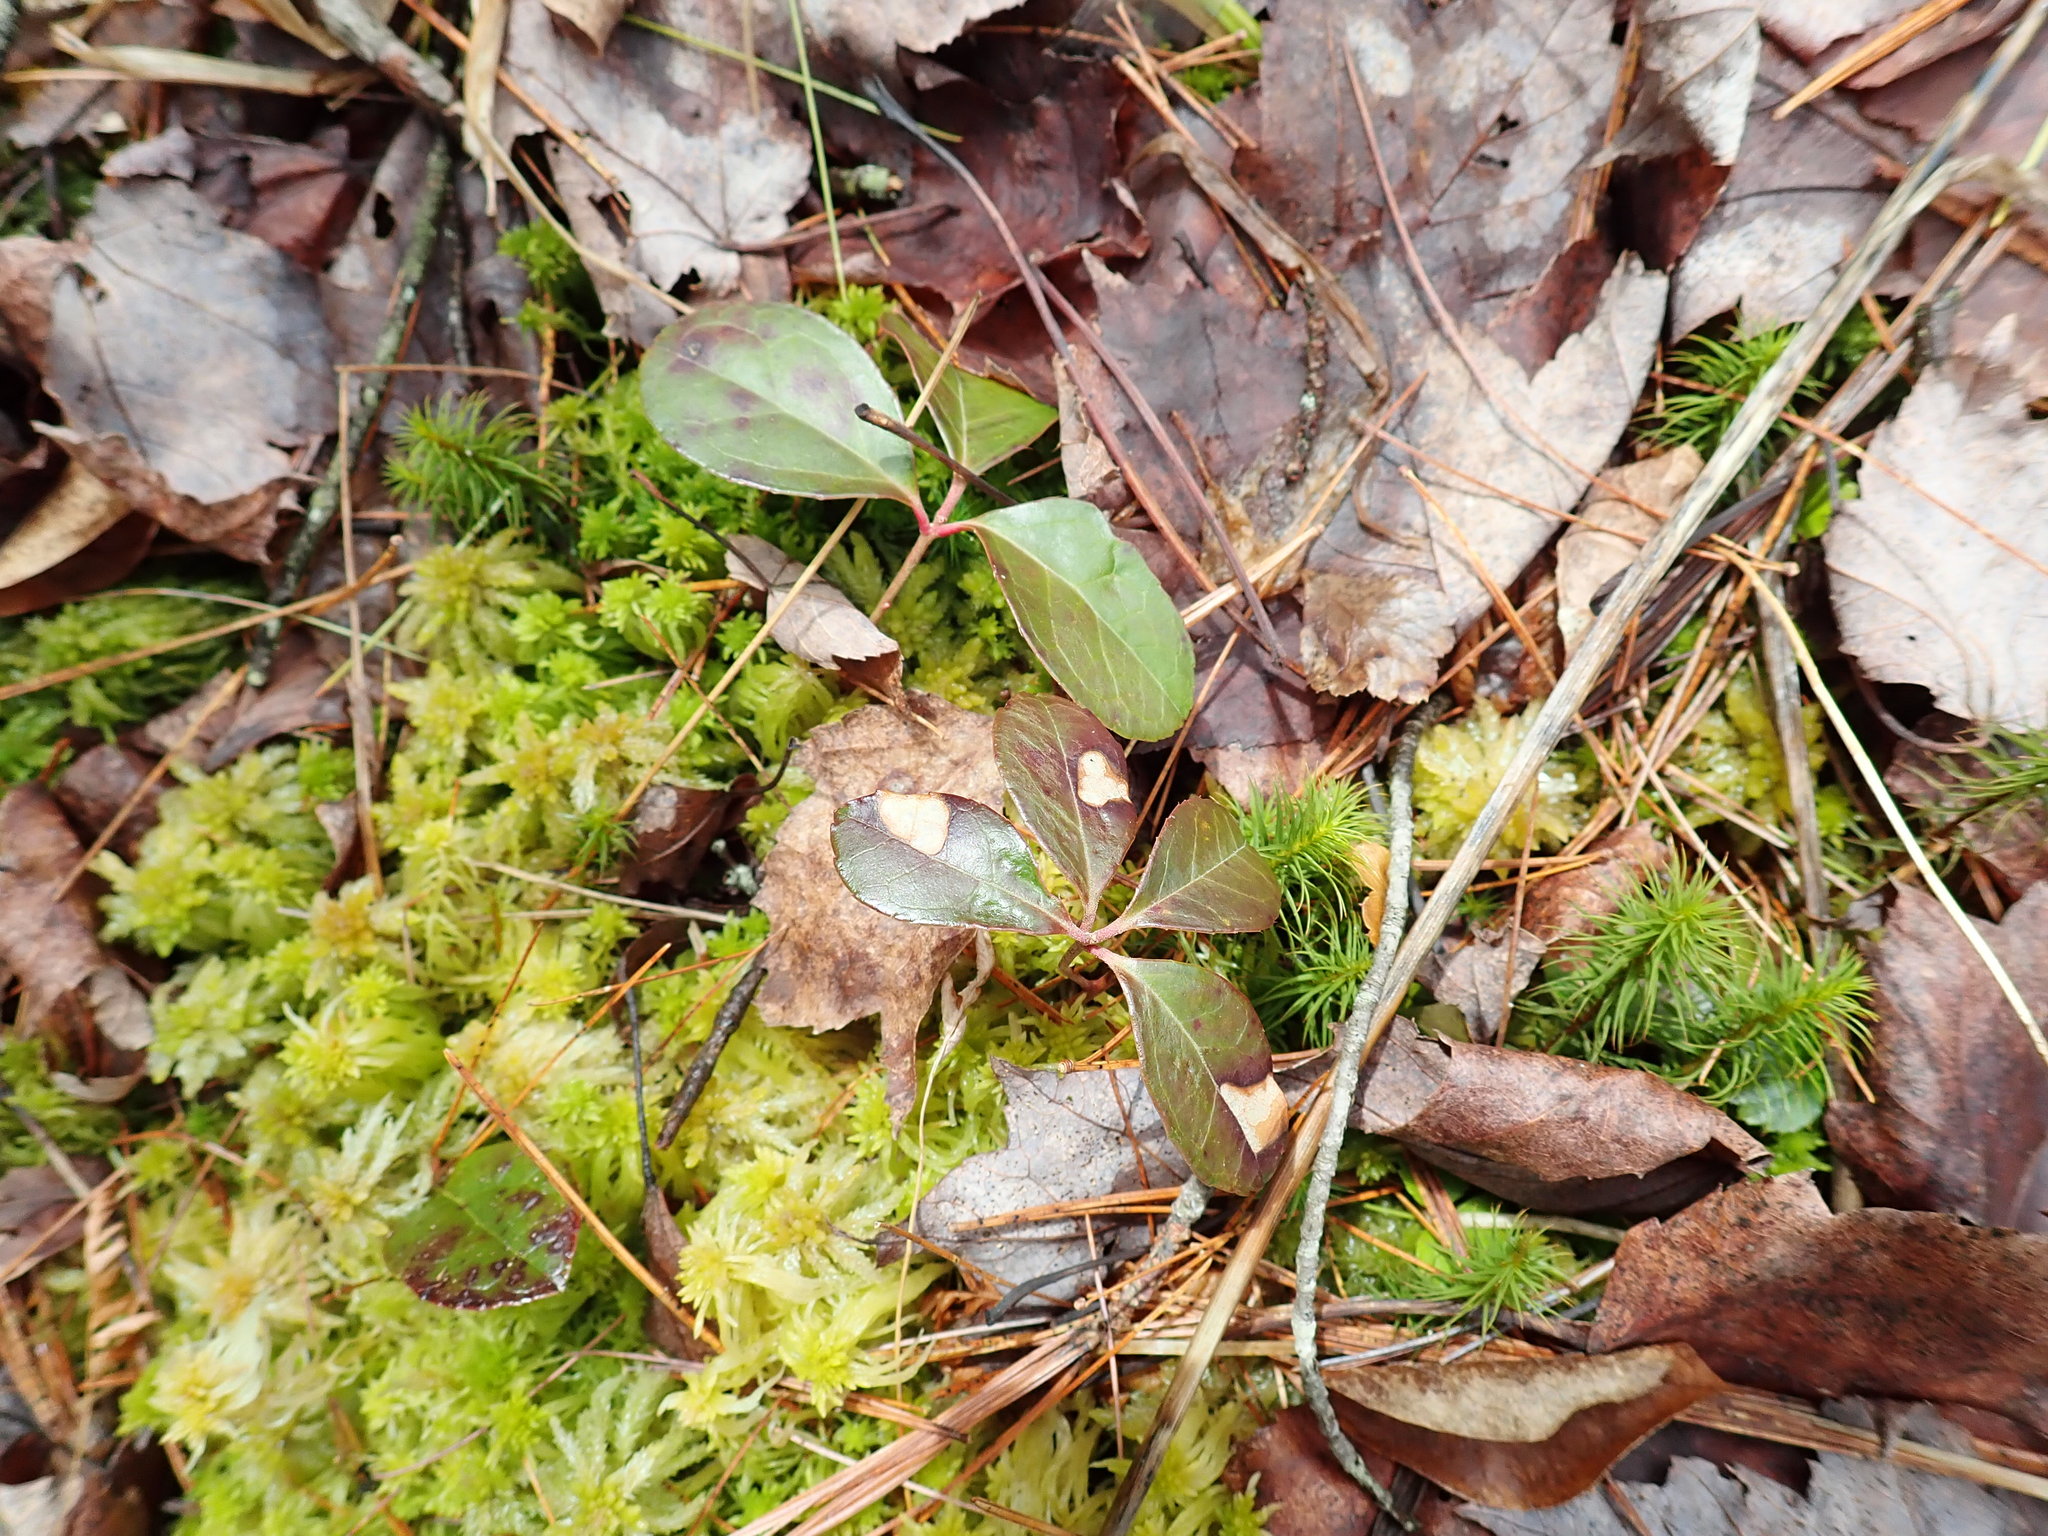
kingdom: Plantae
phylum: Tracheophyta
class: Magnoliopsida
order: Ericales
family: Ericaceae
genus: Gaultheria
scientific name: Gaultheria procumbens
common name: Checkerberry
